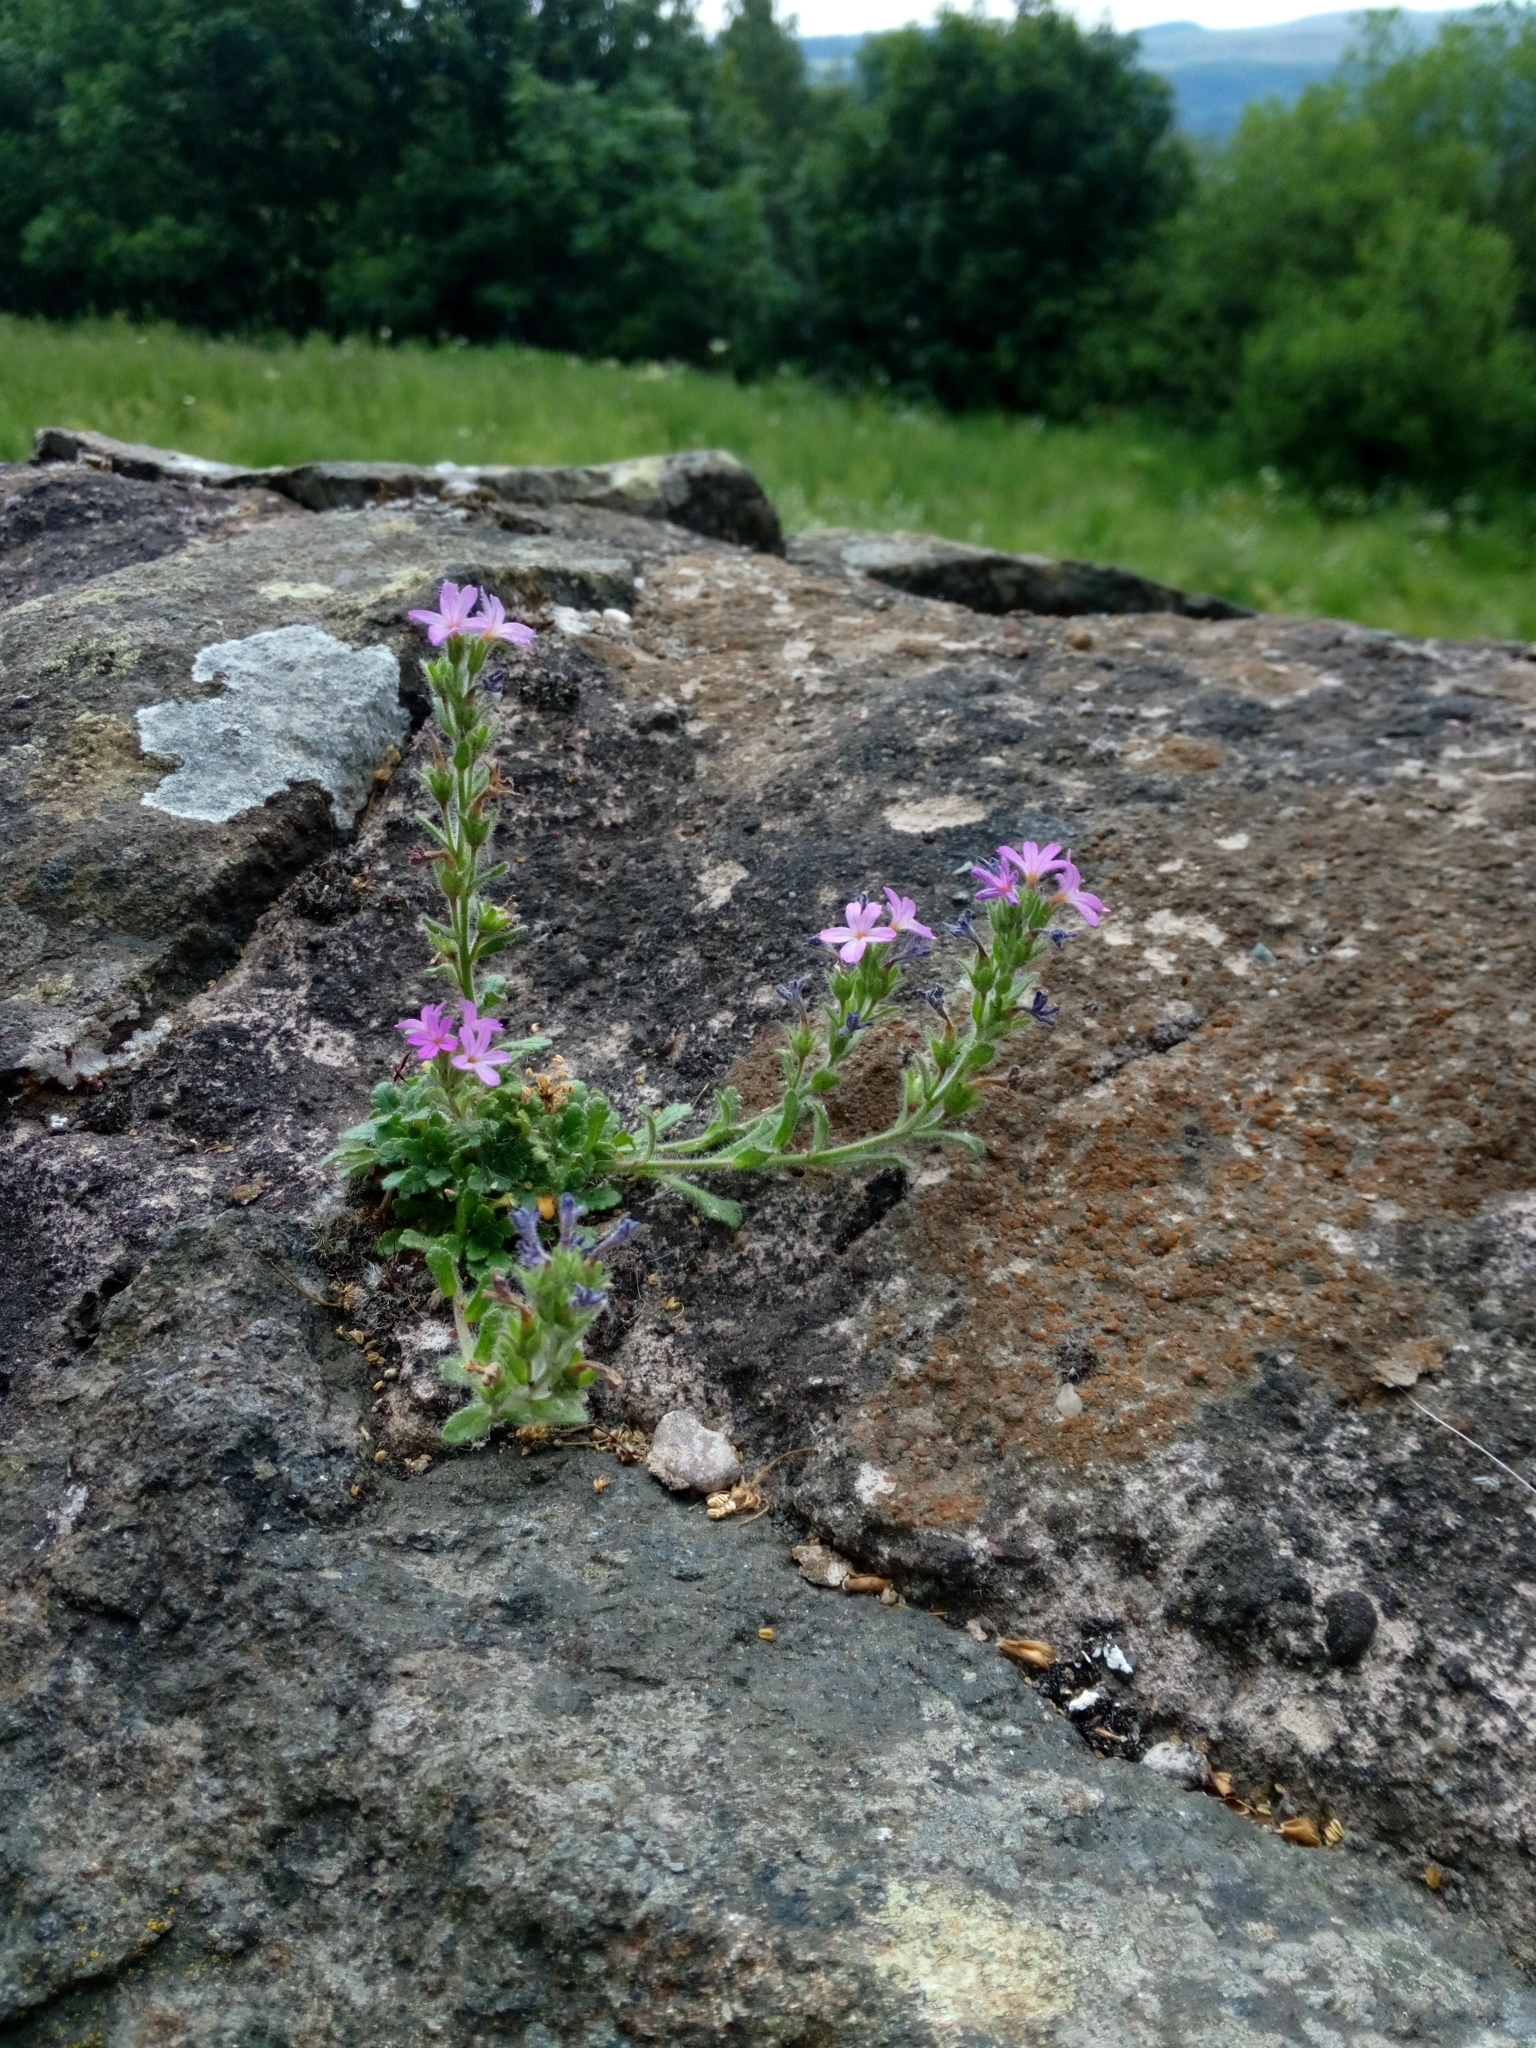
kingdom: Plantae
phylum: Tracheophyta
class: Magnoliopsida
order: Lamiales
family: Plantaginaceae
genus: Erinus
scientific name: Erinus alpinus
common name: Fairy foxglove
